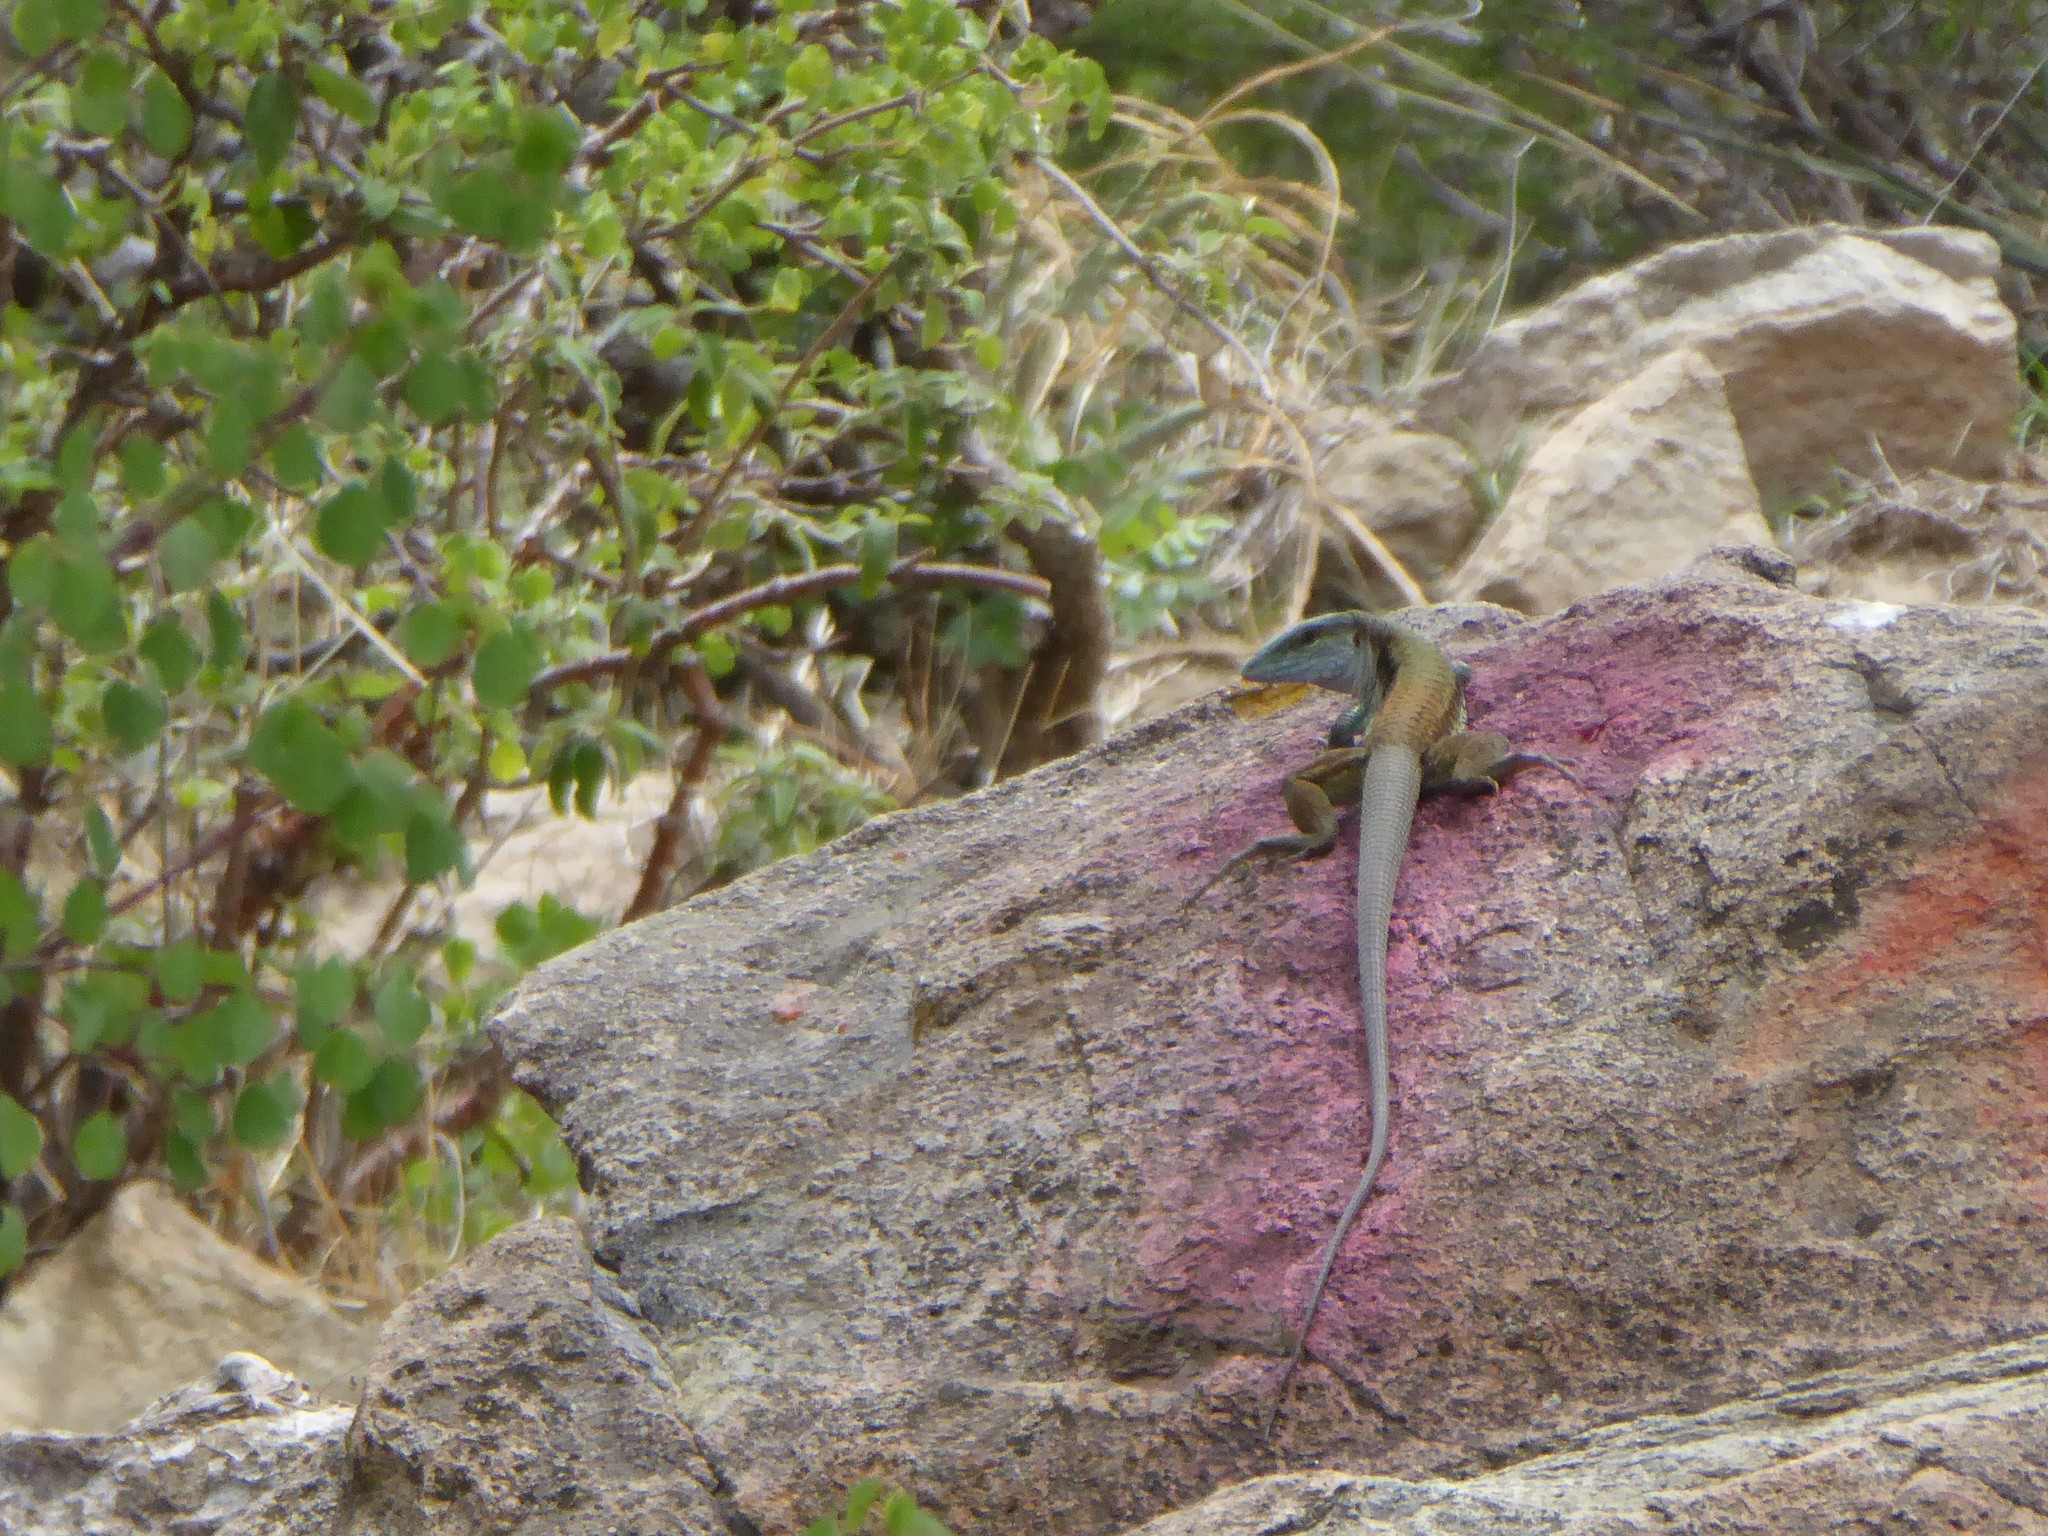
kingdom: Animalia
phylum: Chordata
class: Squamata
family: Teiidae
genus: Aspidoscelis
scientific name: Aspidoscelis sackii
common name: Giant spotted whiptail [gigas]
